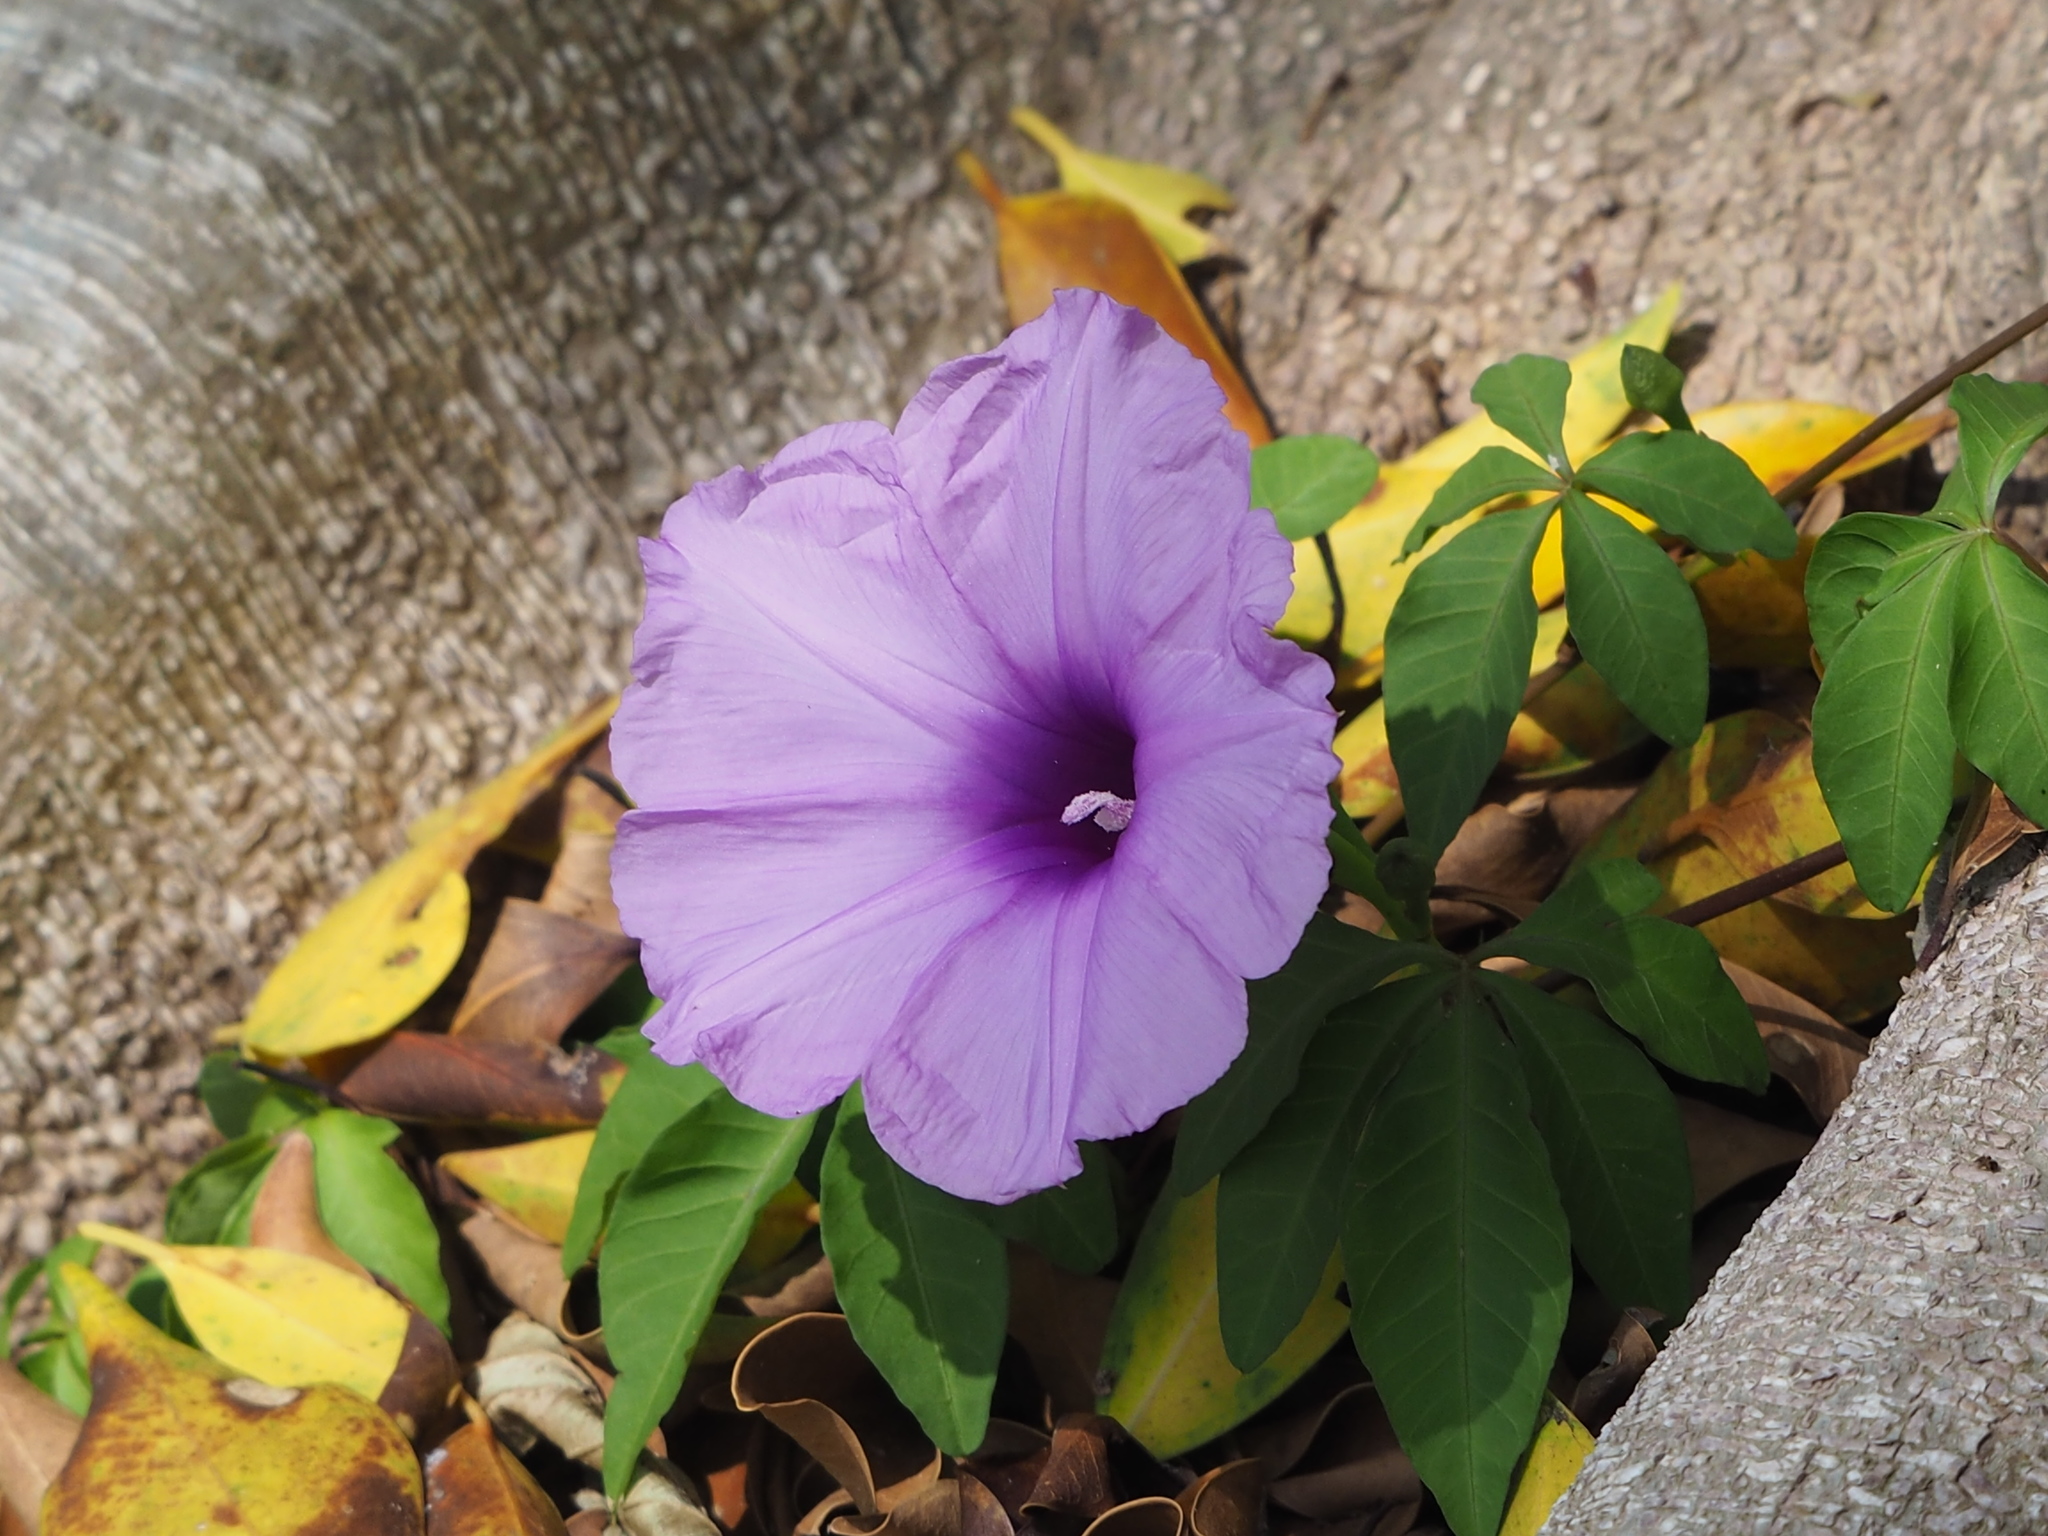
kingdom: Plantae
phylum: Tracheophyta
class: Magnoliopsida
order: Solanales
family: Convolvulaceae
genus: Ipomoea
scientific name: Ipomoea cairica
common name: Mile a minute vine
